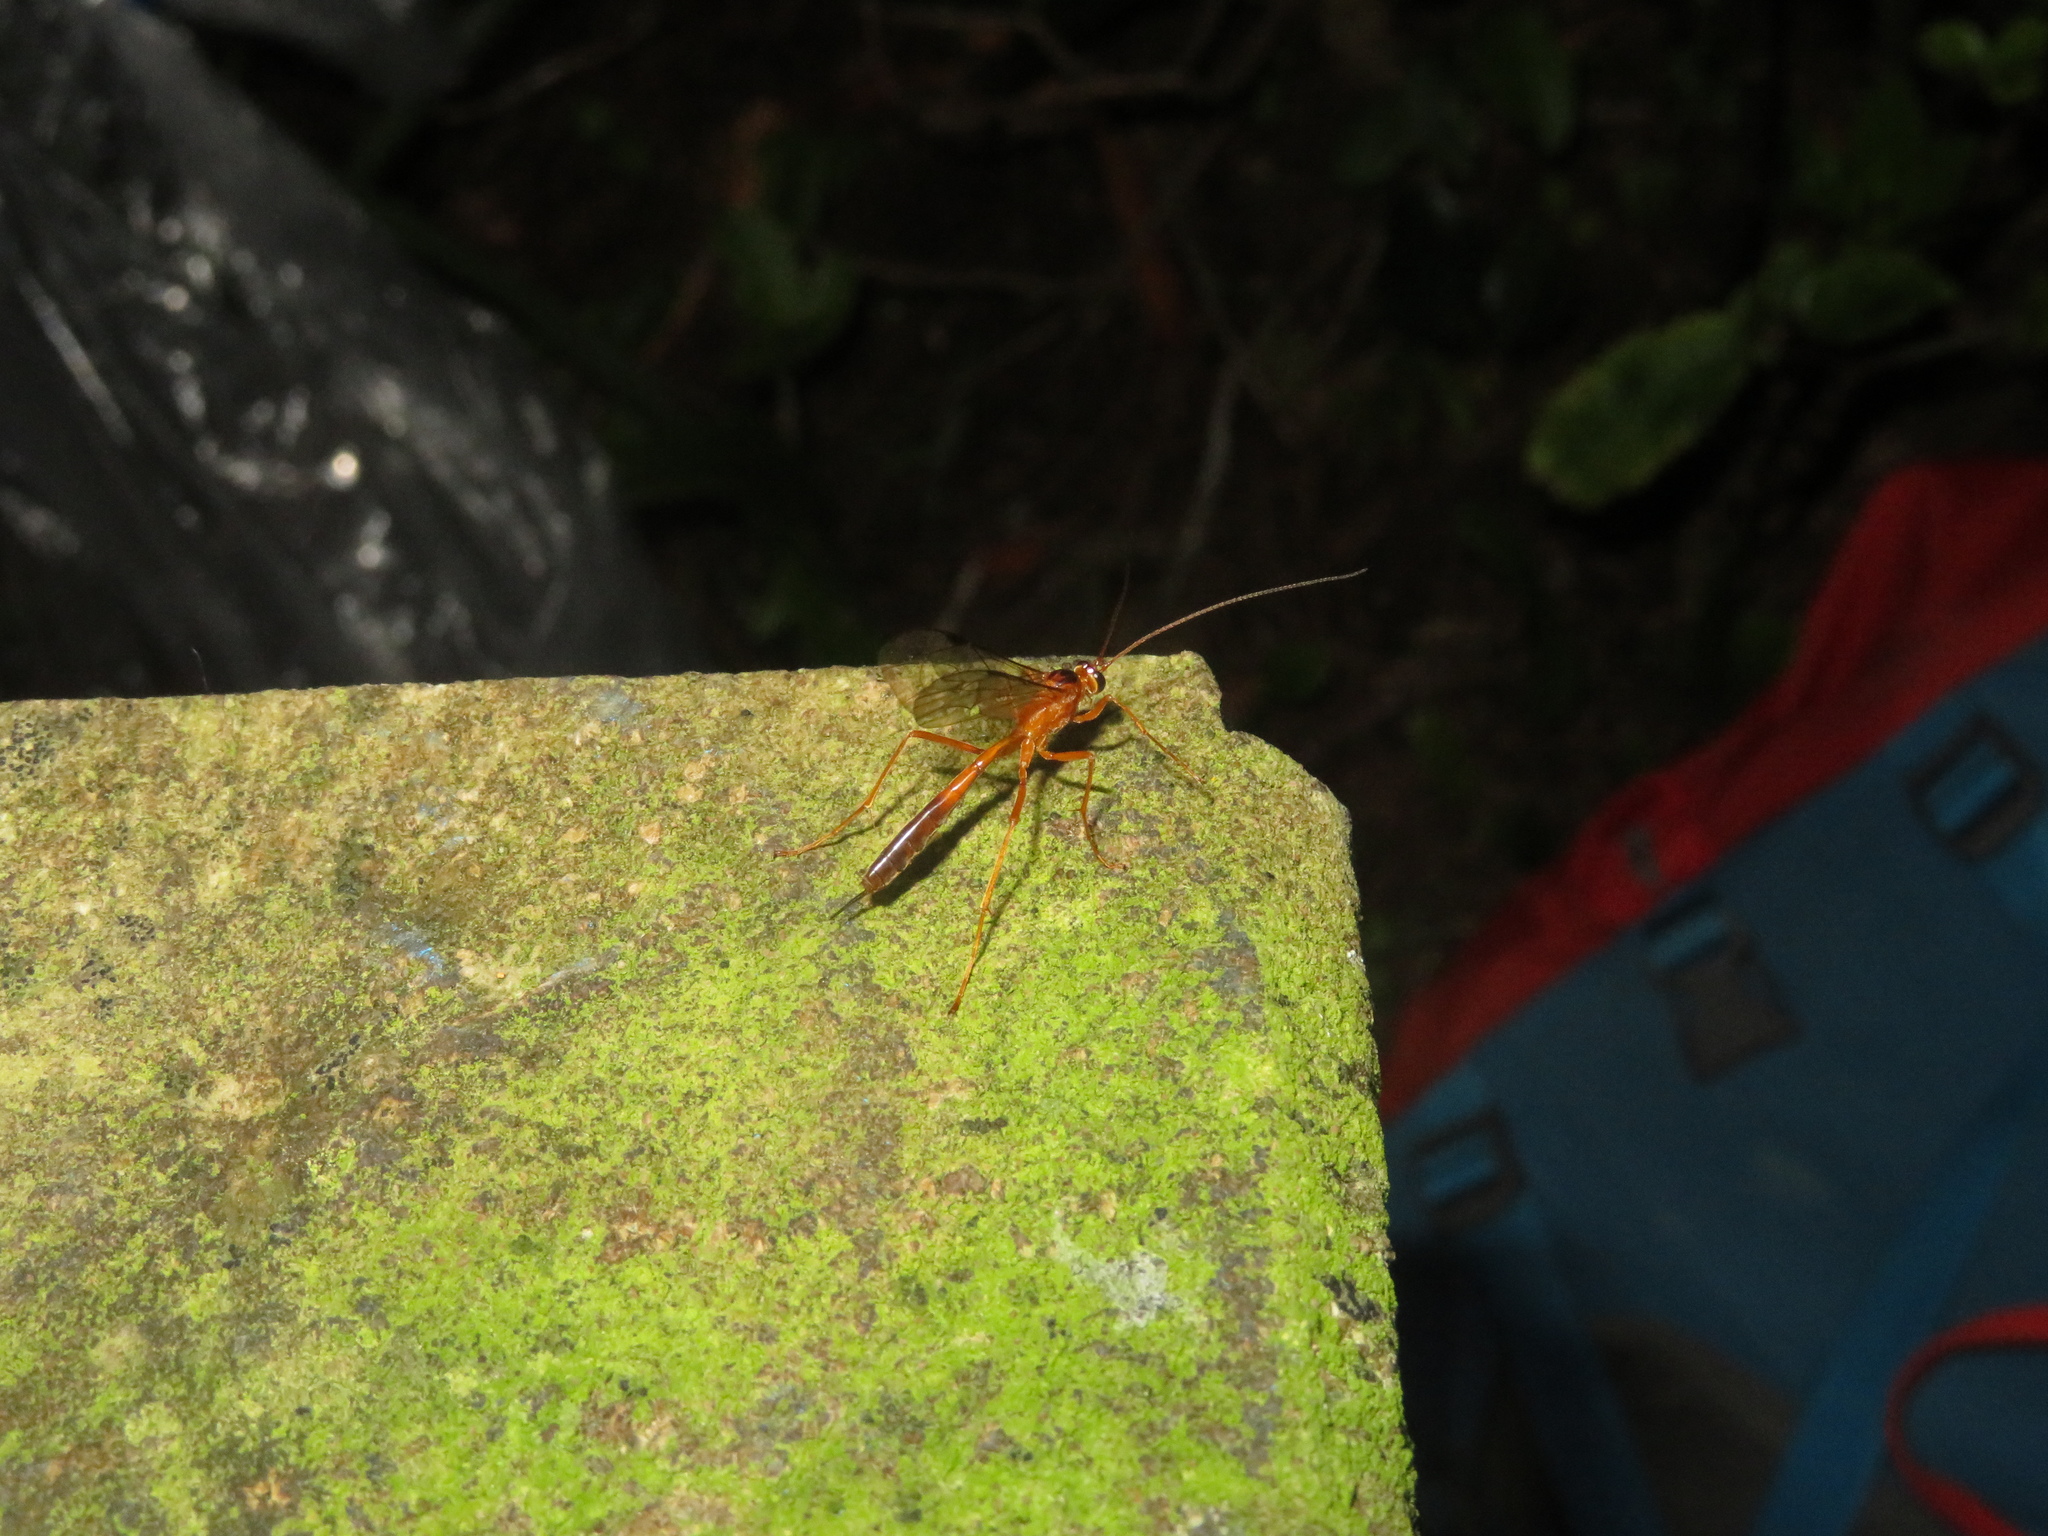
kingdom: Animalia
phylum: Arthropoda
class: Insecta
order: Hymenoptera
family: Ichneumonidae
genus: Netelia
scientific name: Netelia ephippiata
